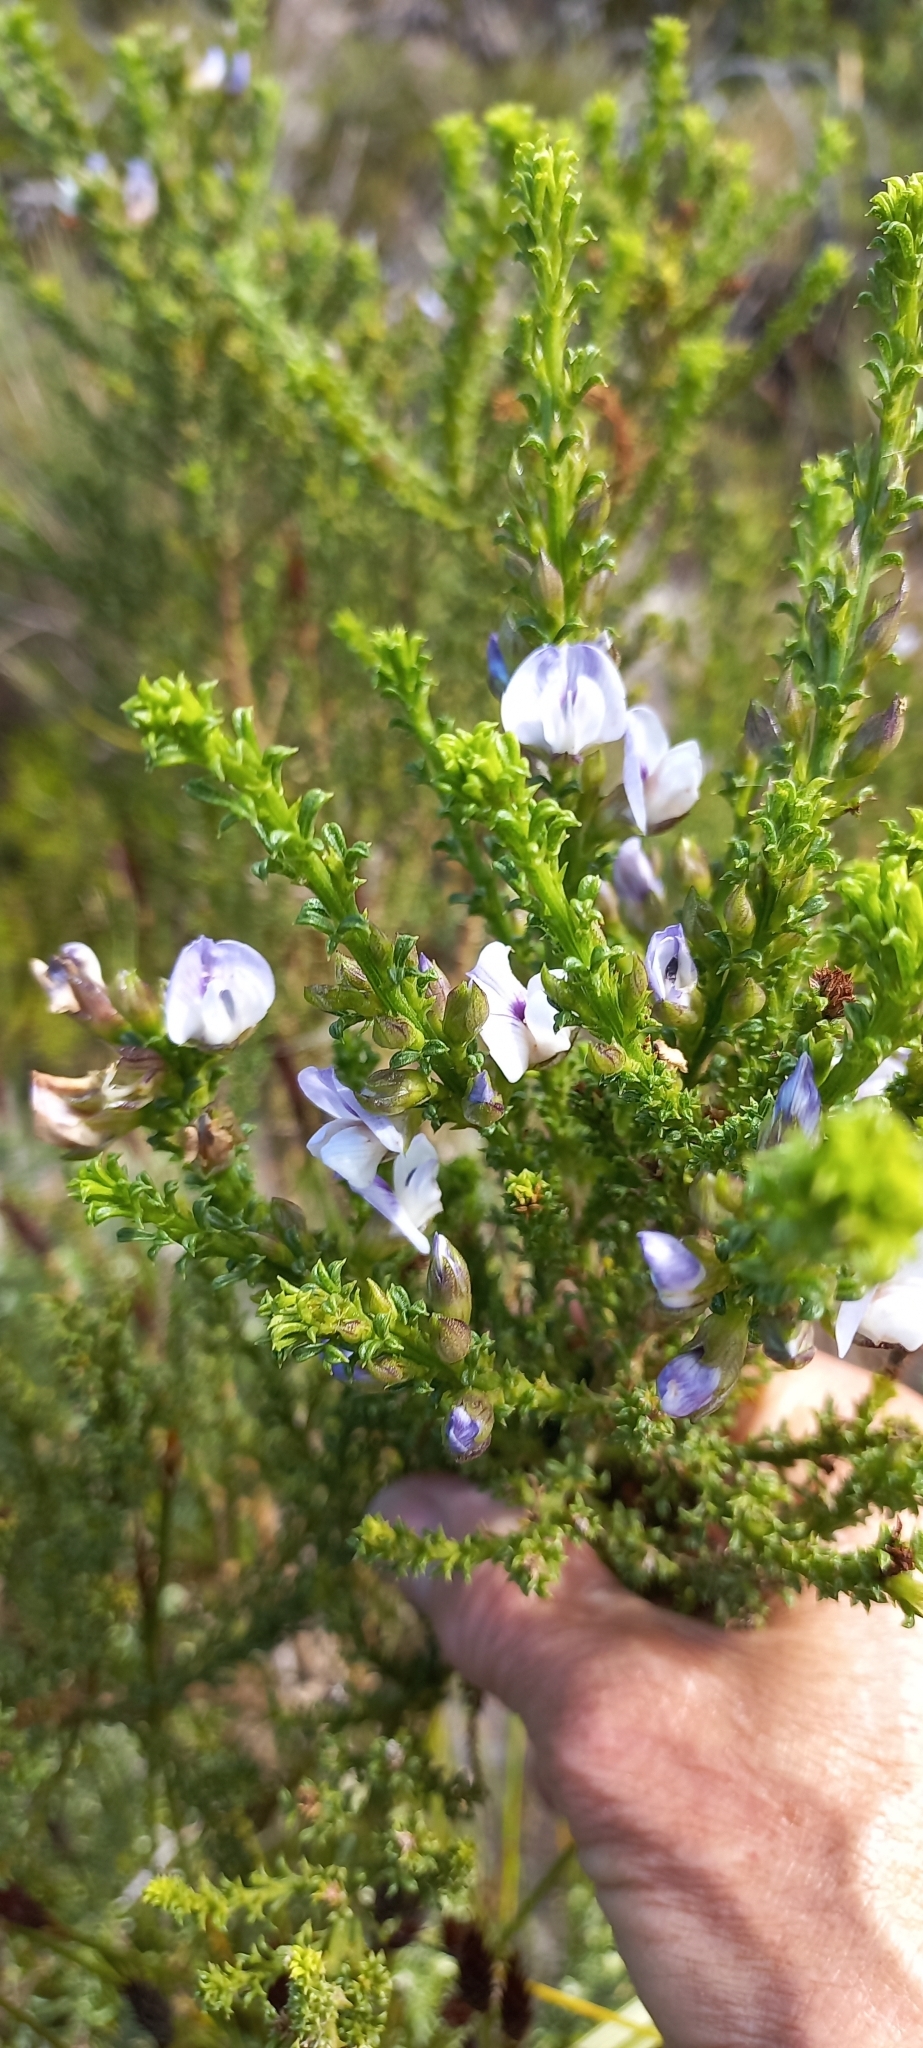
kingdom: Plantae
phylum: Tracheophyta
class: Magnoliopsida
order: Fabales
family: Fabaceae
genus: Psoralea
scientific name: Psoralea aculeata
